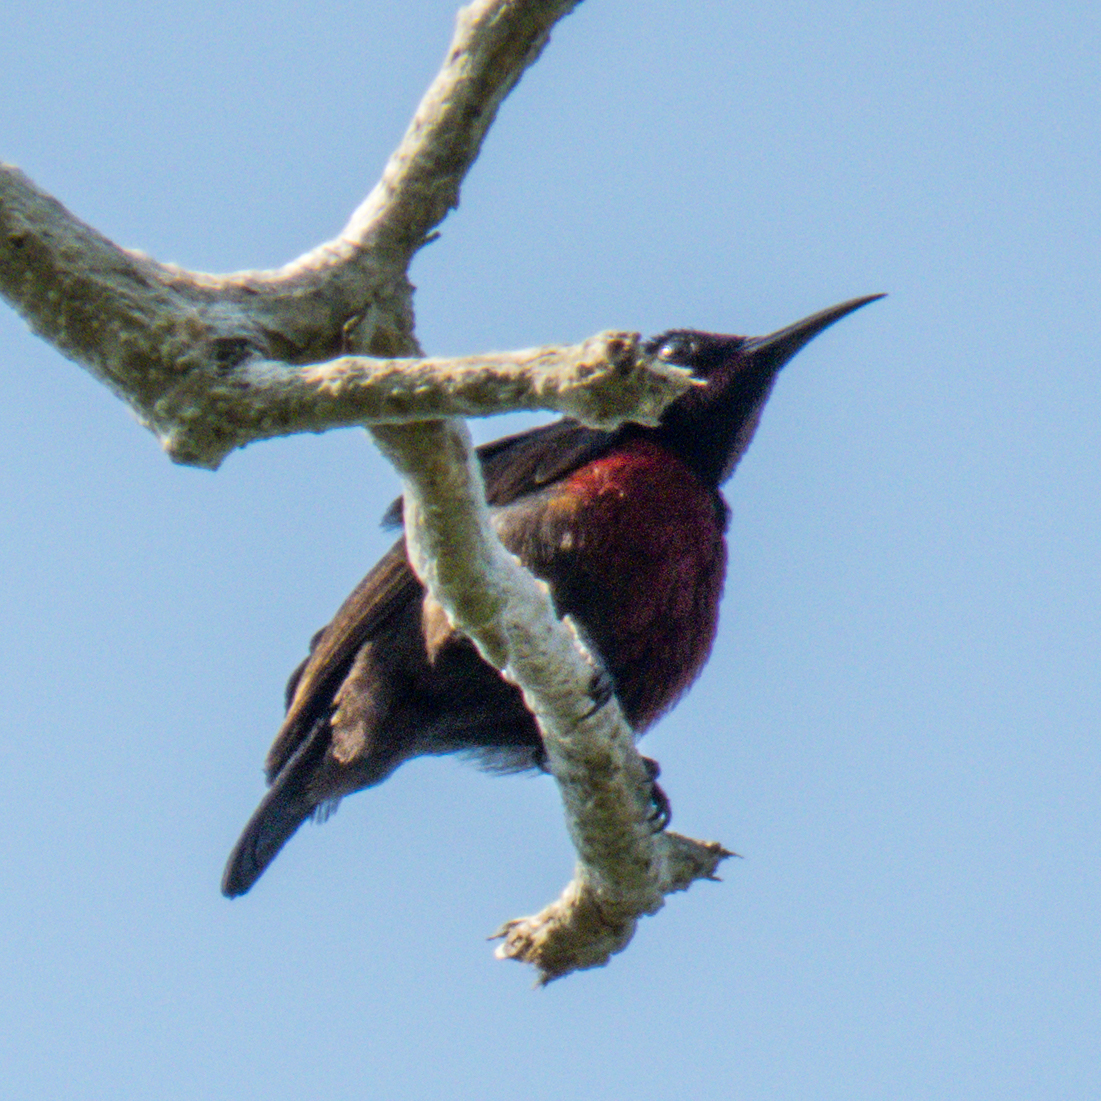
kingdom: Animalia
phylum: Chordata
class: Aves
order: Passeriformes
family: Nectariniidae
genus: Leptocoma
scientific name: Leptocoma brasiliana
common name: Van hasselt's sunbird
